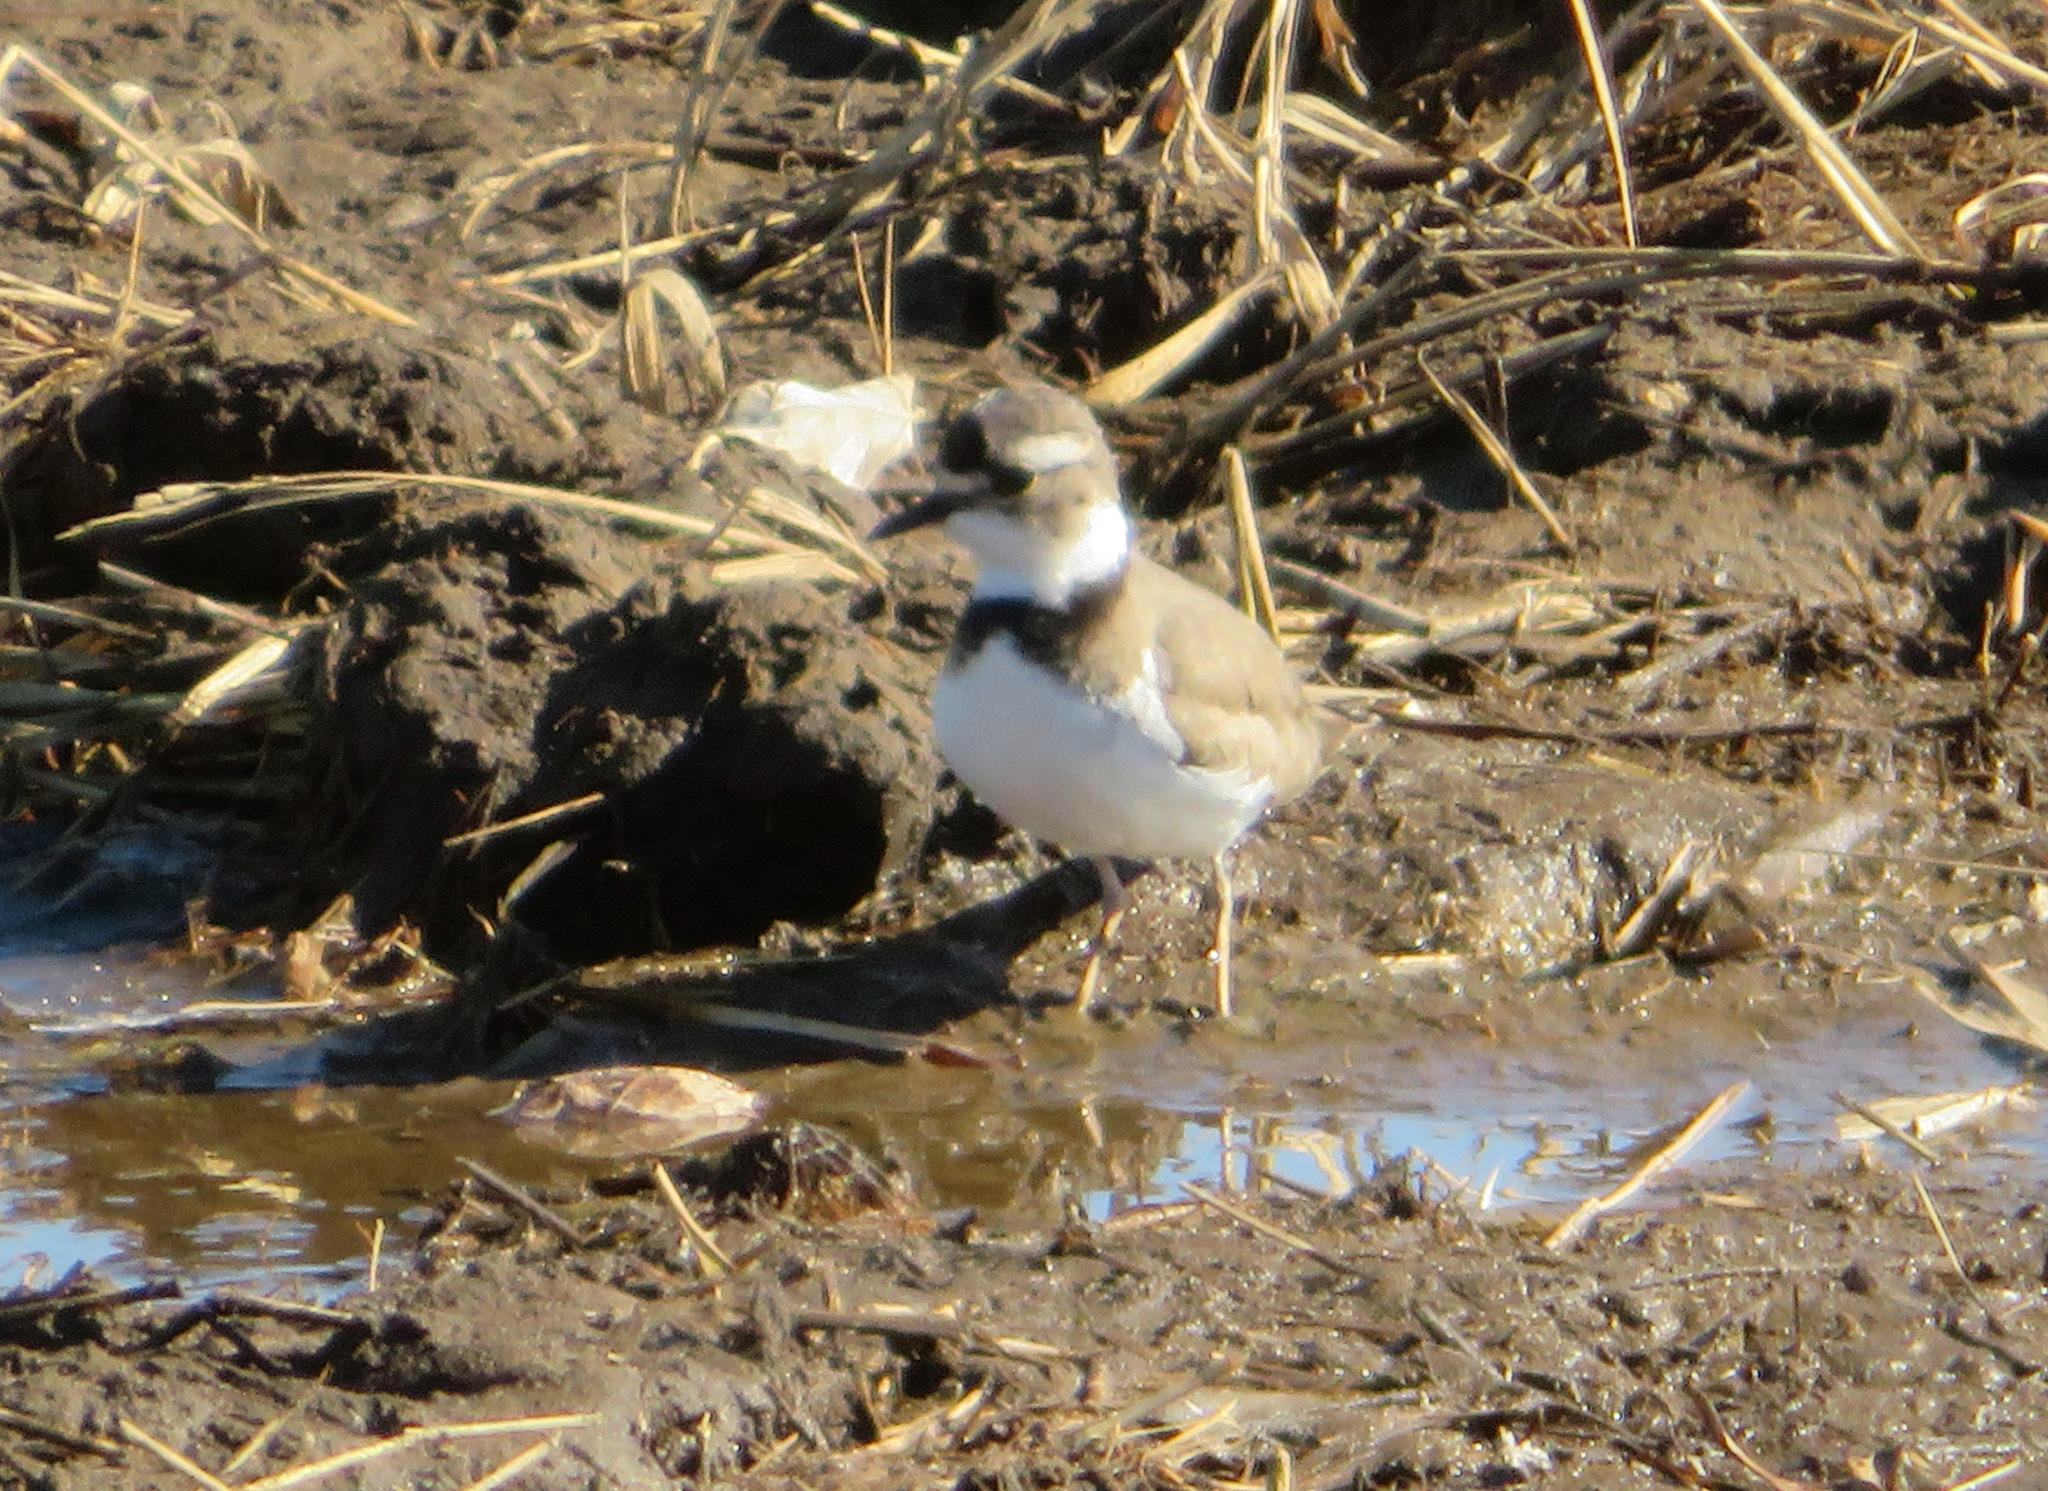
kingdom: Animalia
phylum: Chordata
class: Aves
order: Charadriiformes
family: Charadriidae
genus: Charadrius
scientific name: Charadrius placidus
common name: Long-billed plover
